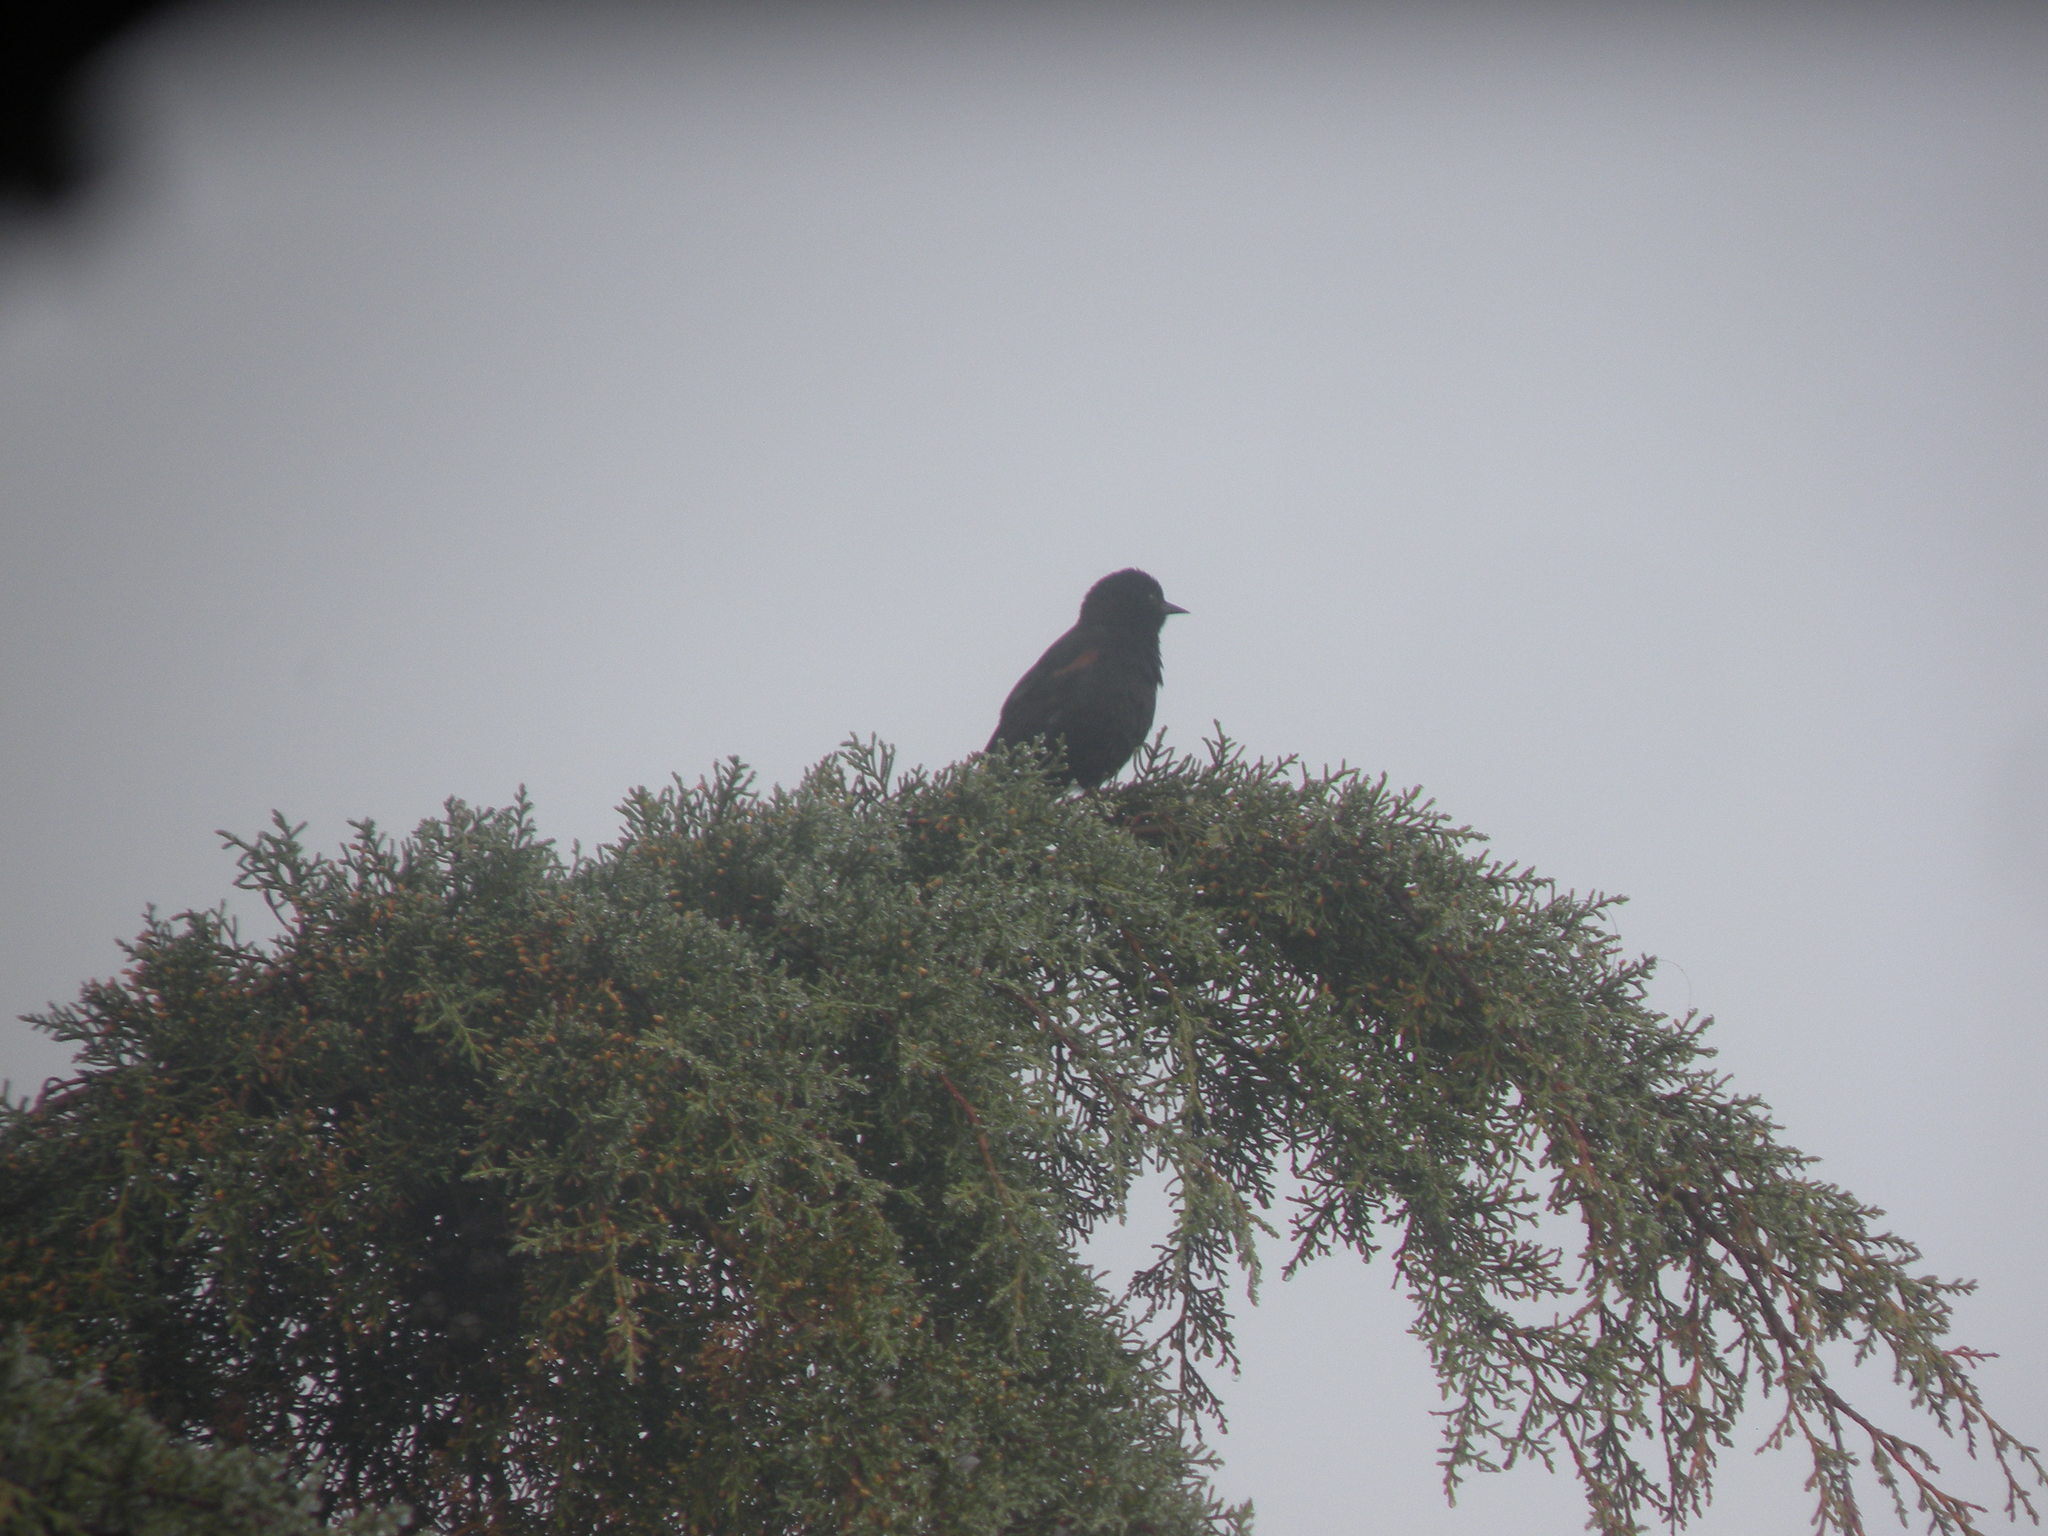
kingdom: Animalia
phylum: Chordata
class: Aves
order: Passeriformes
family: Icteridae
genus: Icterus
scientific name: Icterus cayanensis
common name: Epaulet oriole
